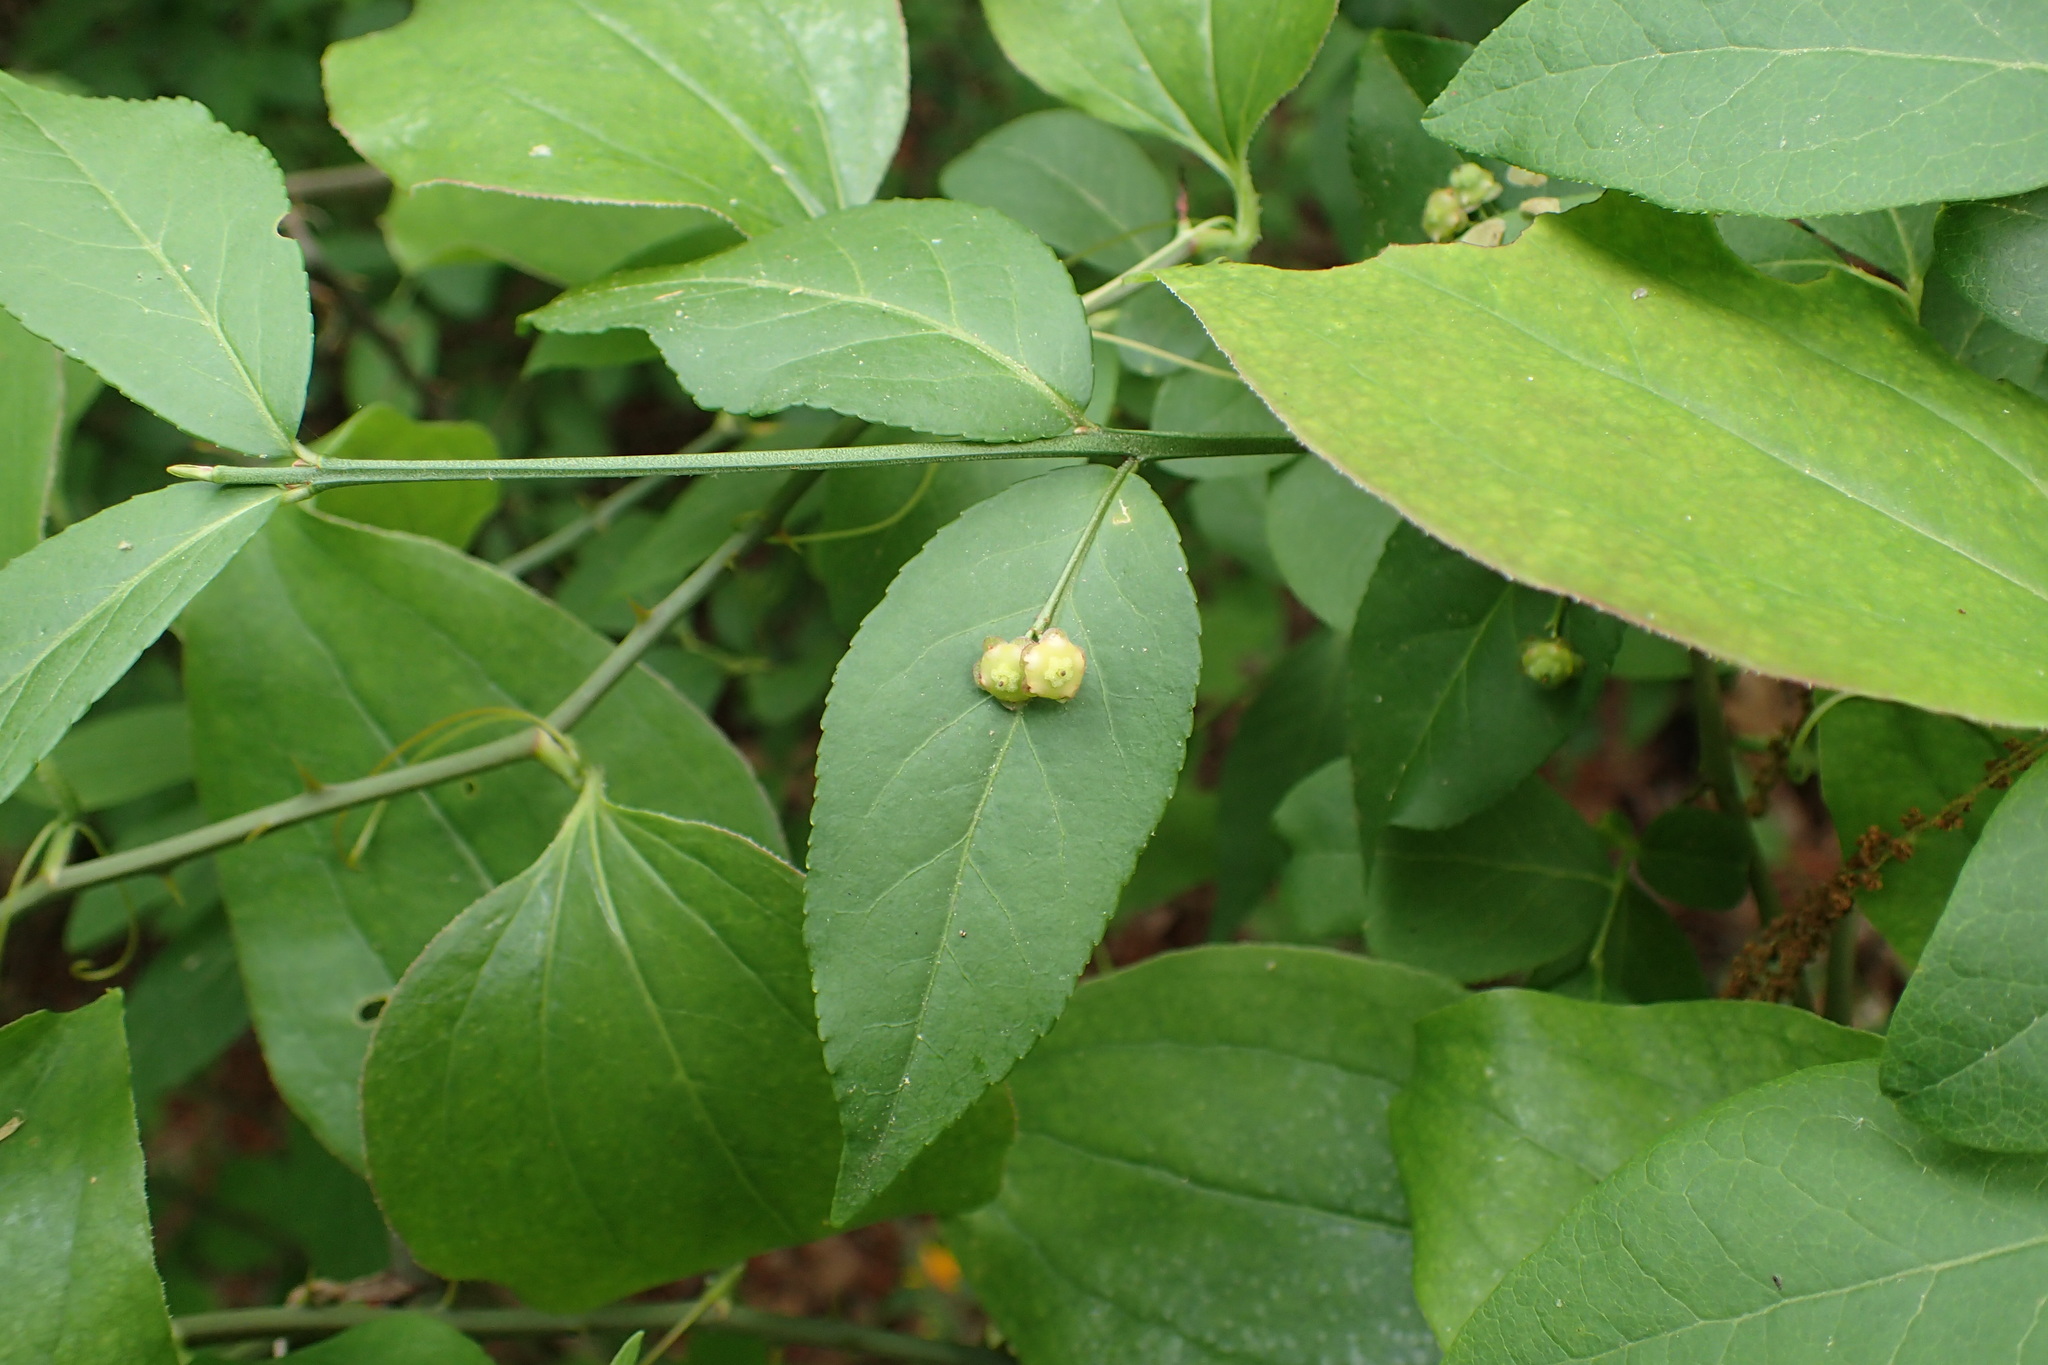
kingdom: Plantae
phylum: Tracheophyta
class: Magnoliopsida
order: Celastrales
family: Celastraceae
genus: Euonymus
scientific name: Euonymus americanus
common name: Bursting-heart
